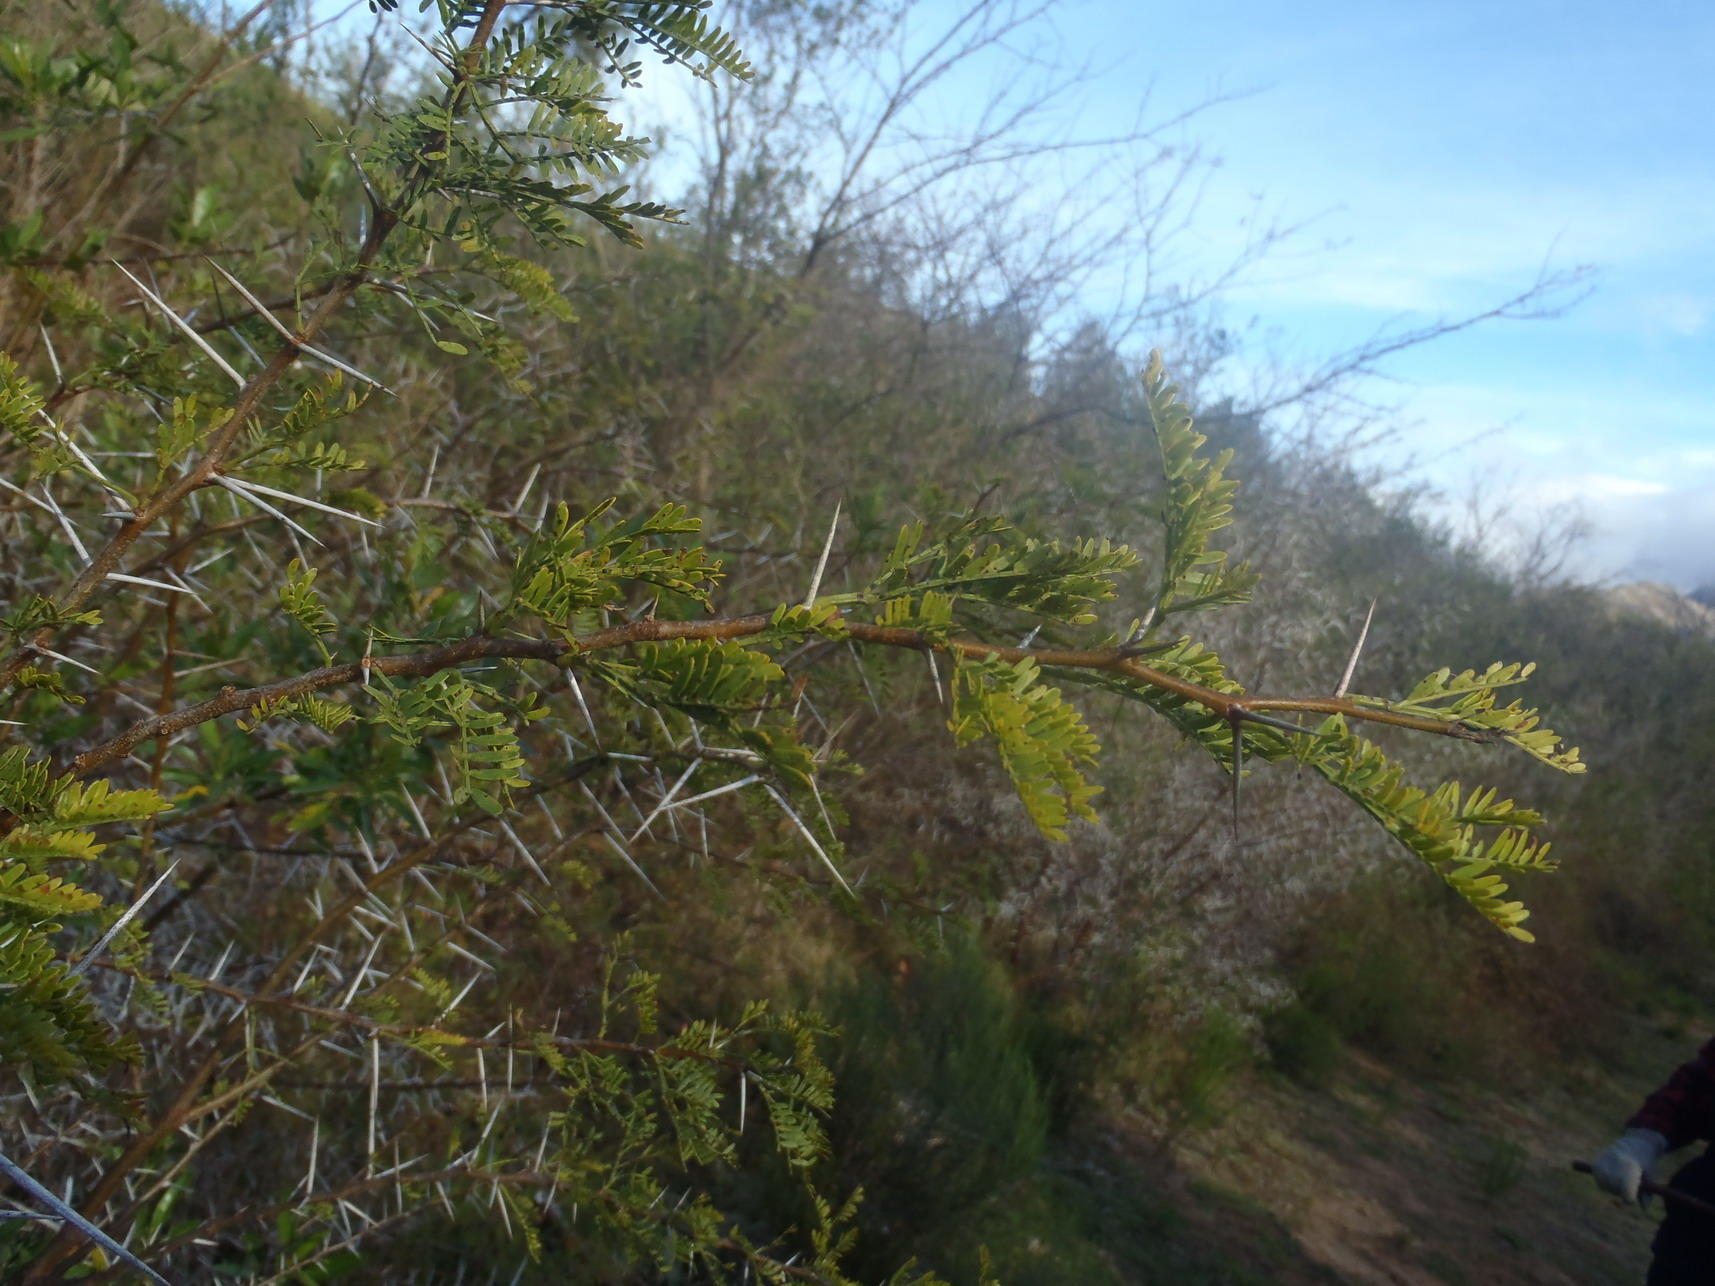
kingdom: Plantae
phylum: Tracheophyta
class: Magnoliopsida
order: Fabales
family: Fabaceae
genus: Vachellia
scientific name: Vachellia karroo
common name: Sweet thorn
